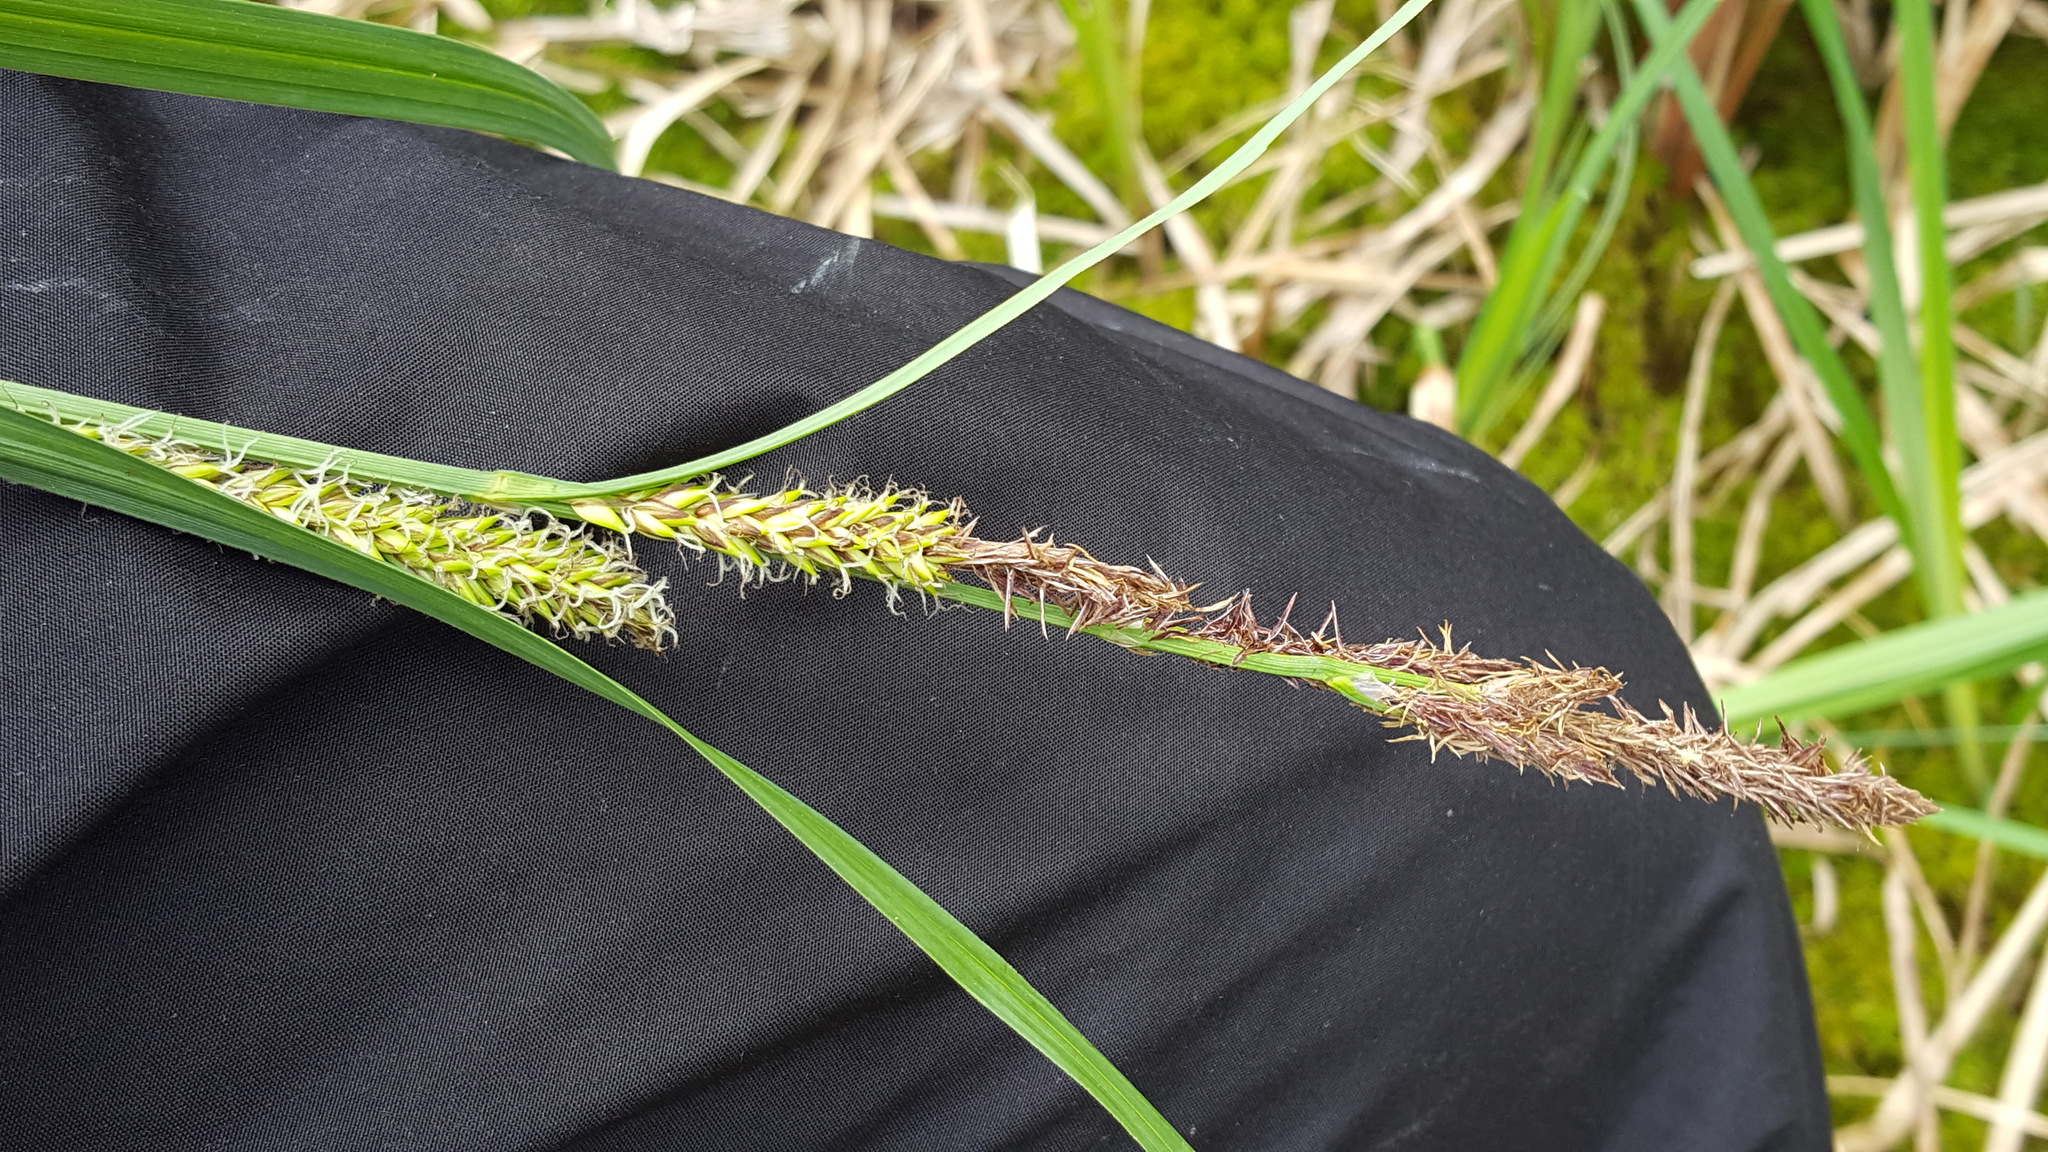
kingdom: Plantae
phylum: Tracheophyta
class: Liliopsida
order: Poales
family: Cyperaceae
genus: Carex
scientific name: Carex lacustris
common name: Common lake sedge
